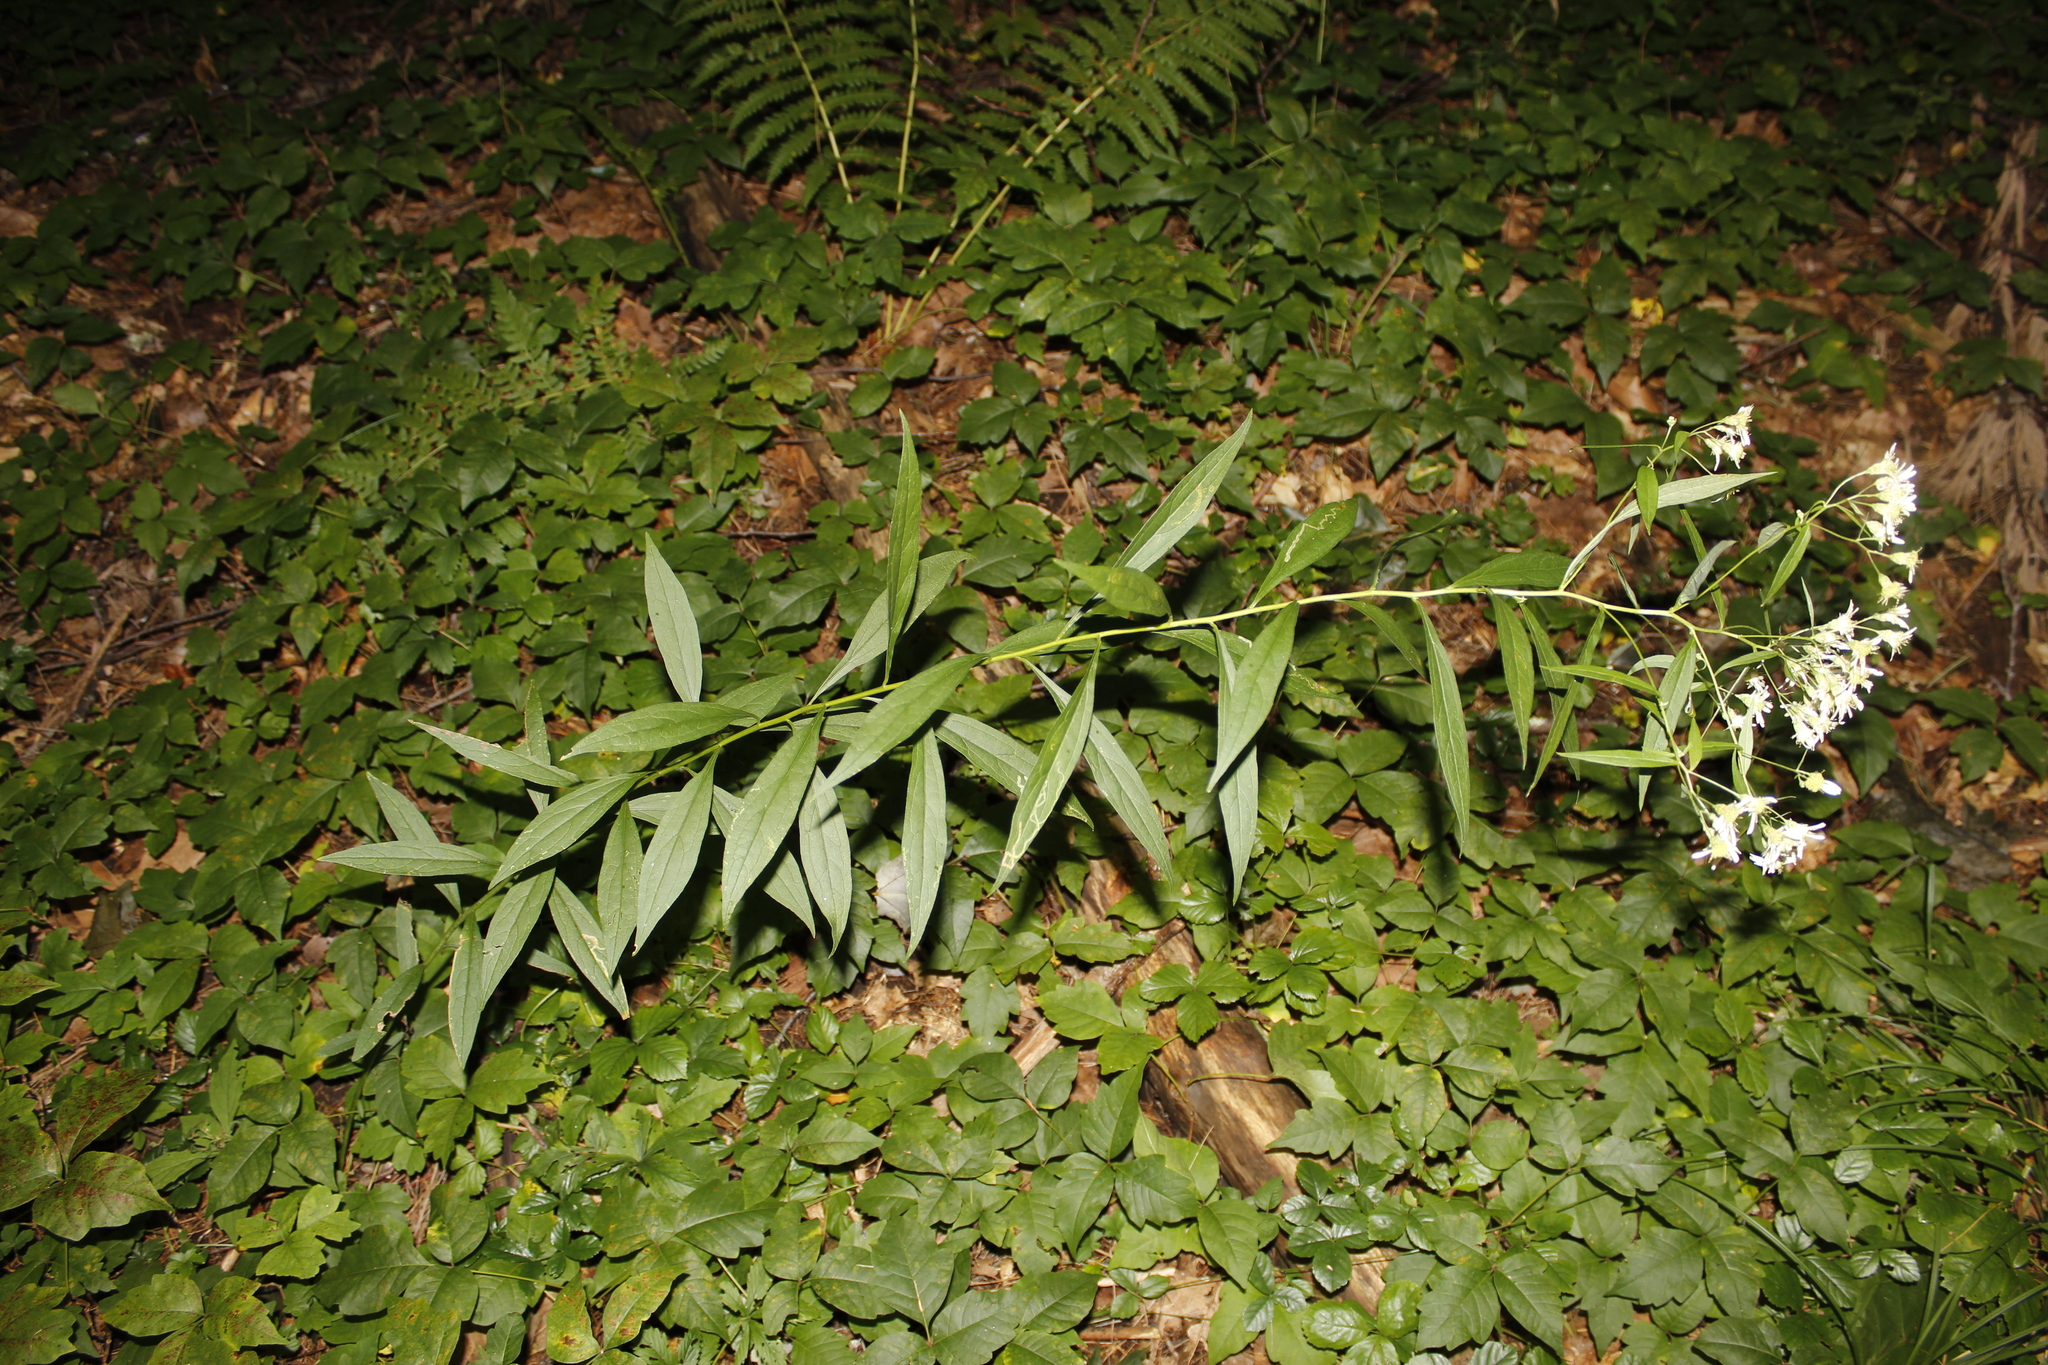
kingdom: Plantae
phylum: Tracheophyta
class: Magnoliopsida
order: Asterales
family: Asteraceae
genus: Doellingeria
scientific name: Doellingeria umbellata
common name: Flat-top white aster
